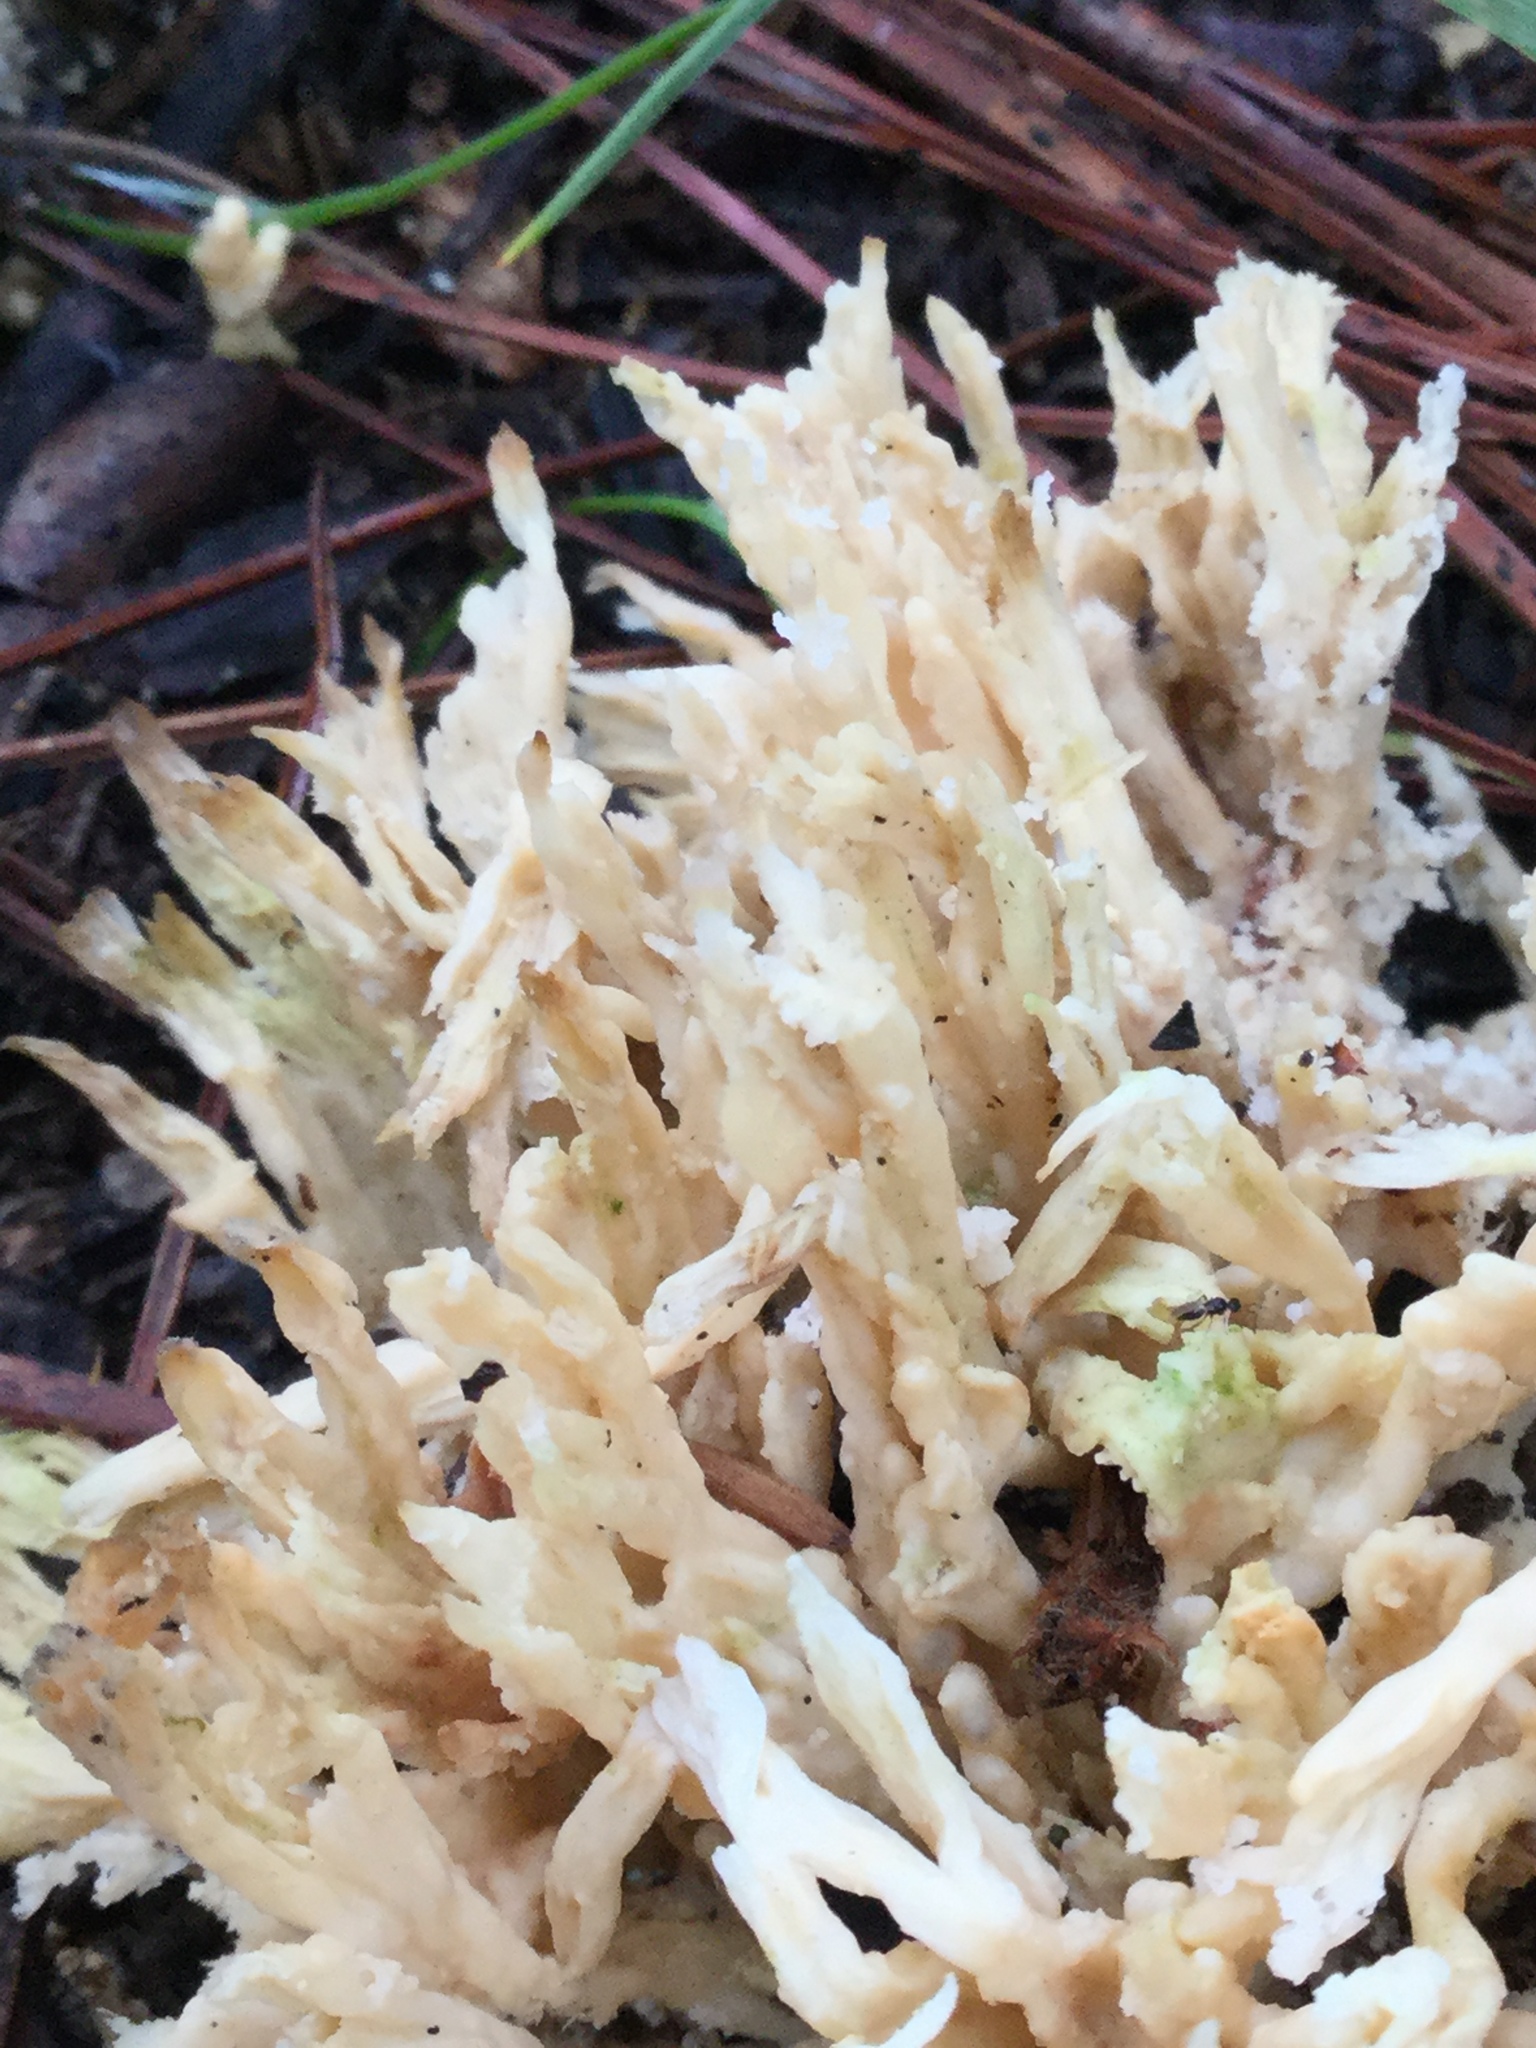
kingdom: Fungi
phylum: Basidiomycota
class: Agaricomycetes
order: Sebacinales
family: Sebacinaceae
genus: Sebacina
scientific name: Sebacina schweinitzii
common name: Jellied false coral fungus
